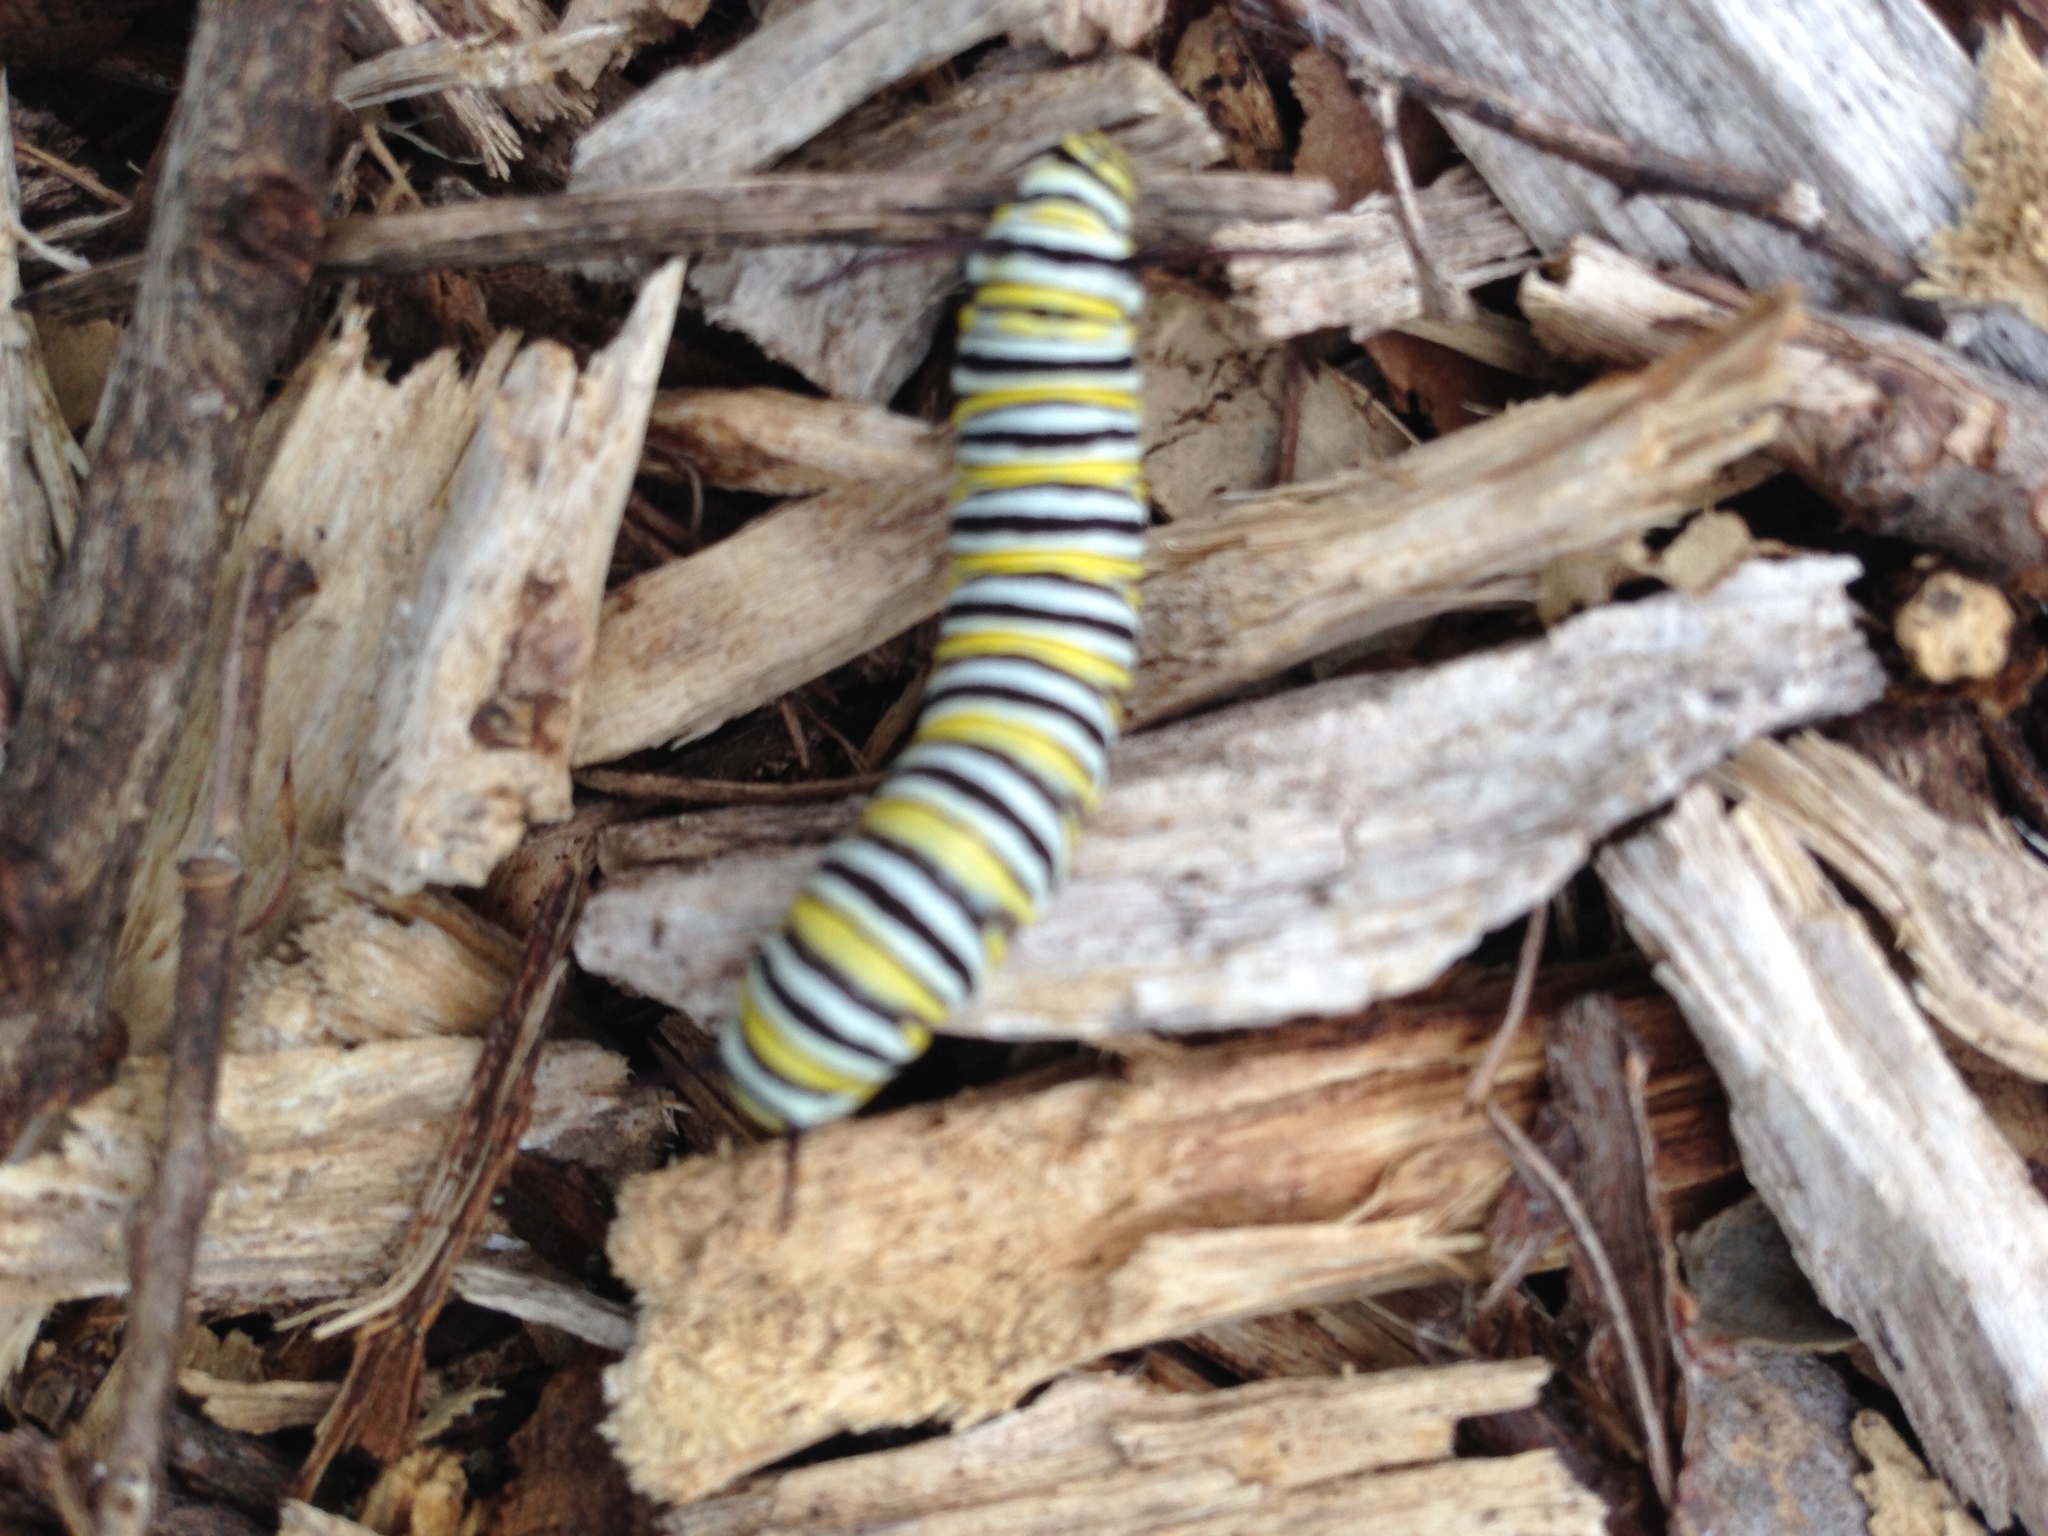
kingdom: Animalia
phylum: Arthropoda
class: Insecta
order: Lepidoptera
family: Nymphalidae
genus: Danaus
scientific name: Danaus plexippus
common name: Monarch
